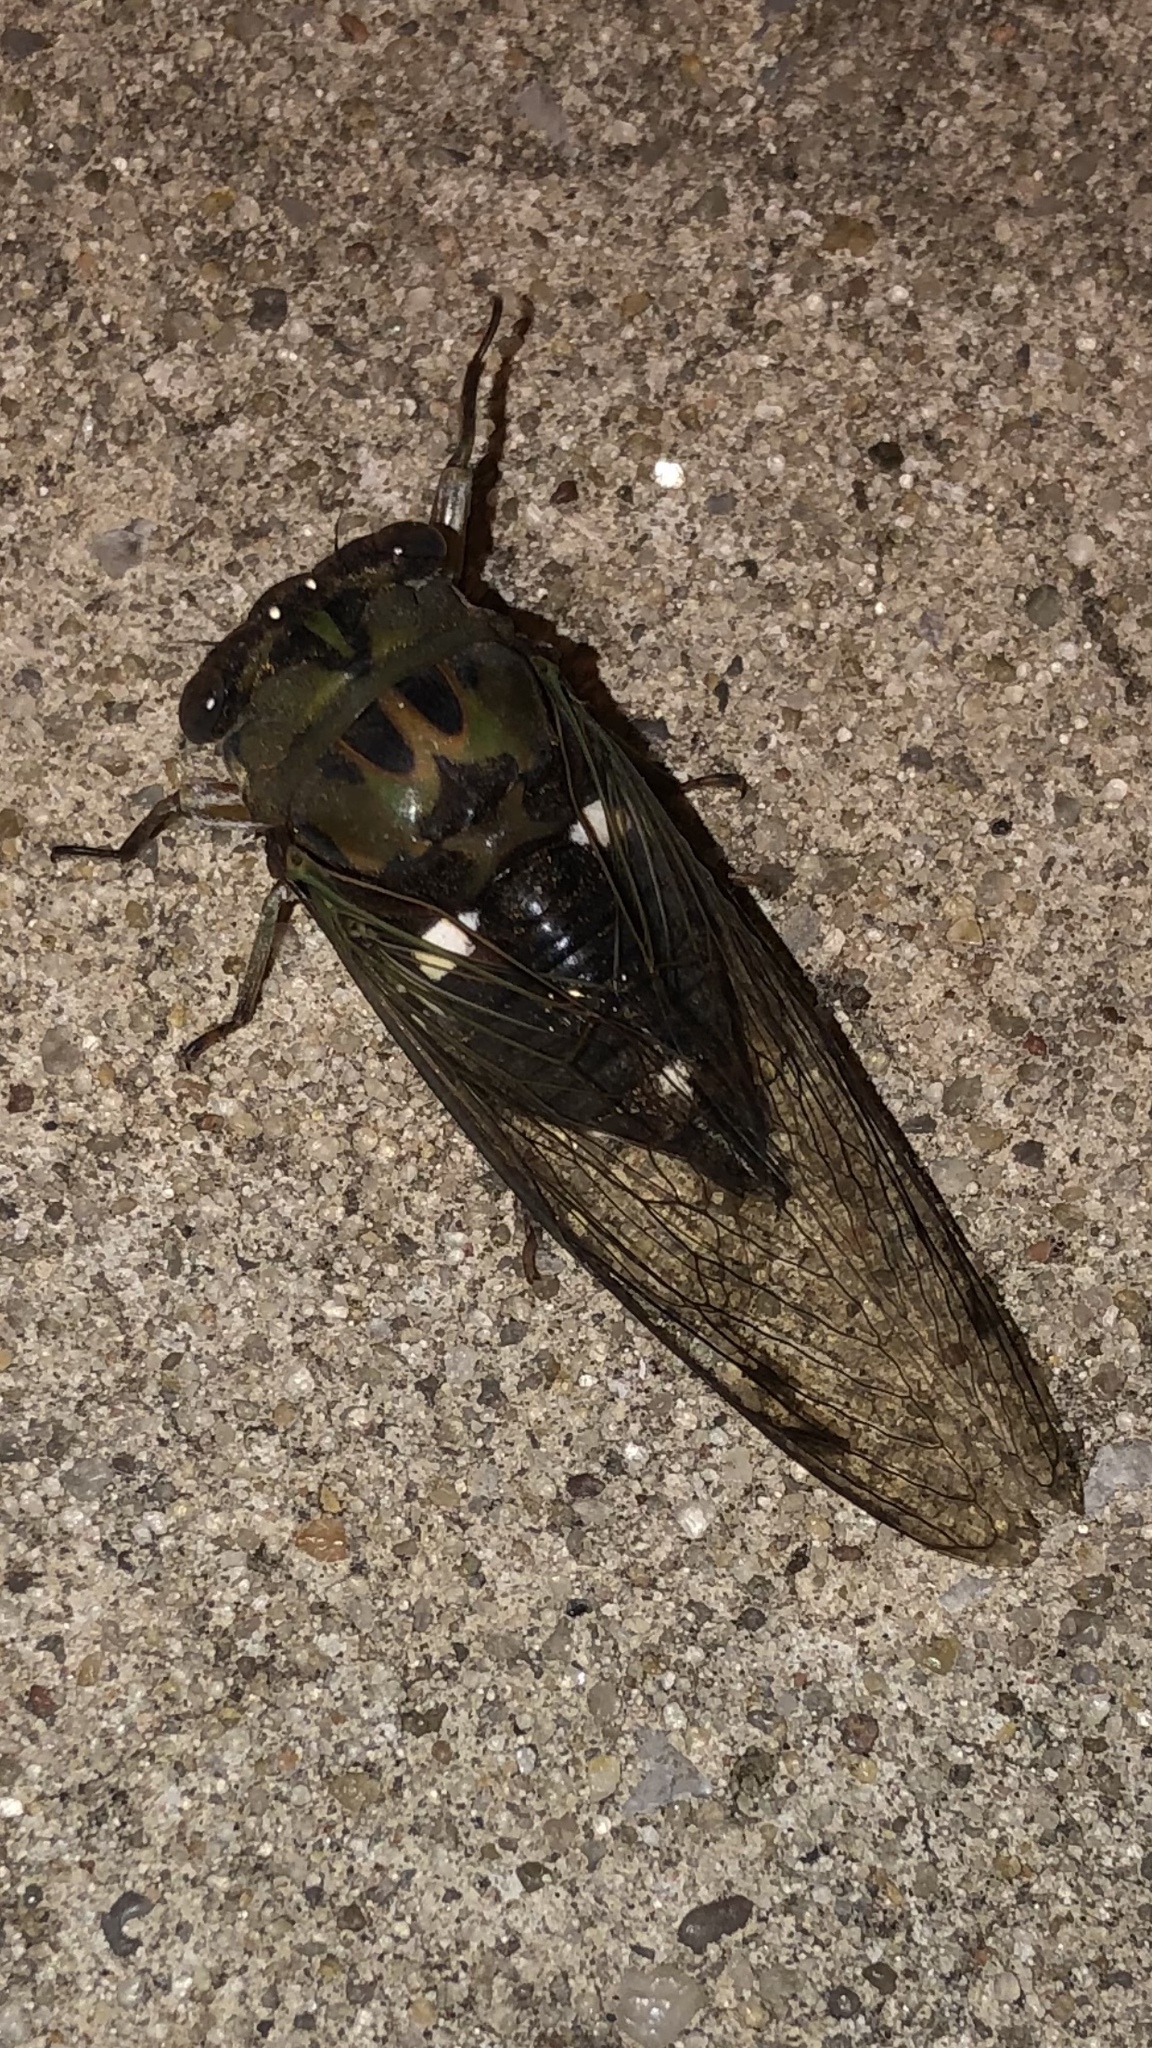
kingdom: Animalia
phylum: Arthropoda
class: Insecta
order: Hemiptera
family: Cicadidae
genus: Neotibicen
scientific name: Neotibicen pruinosus
